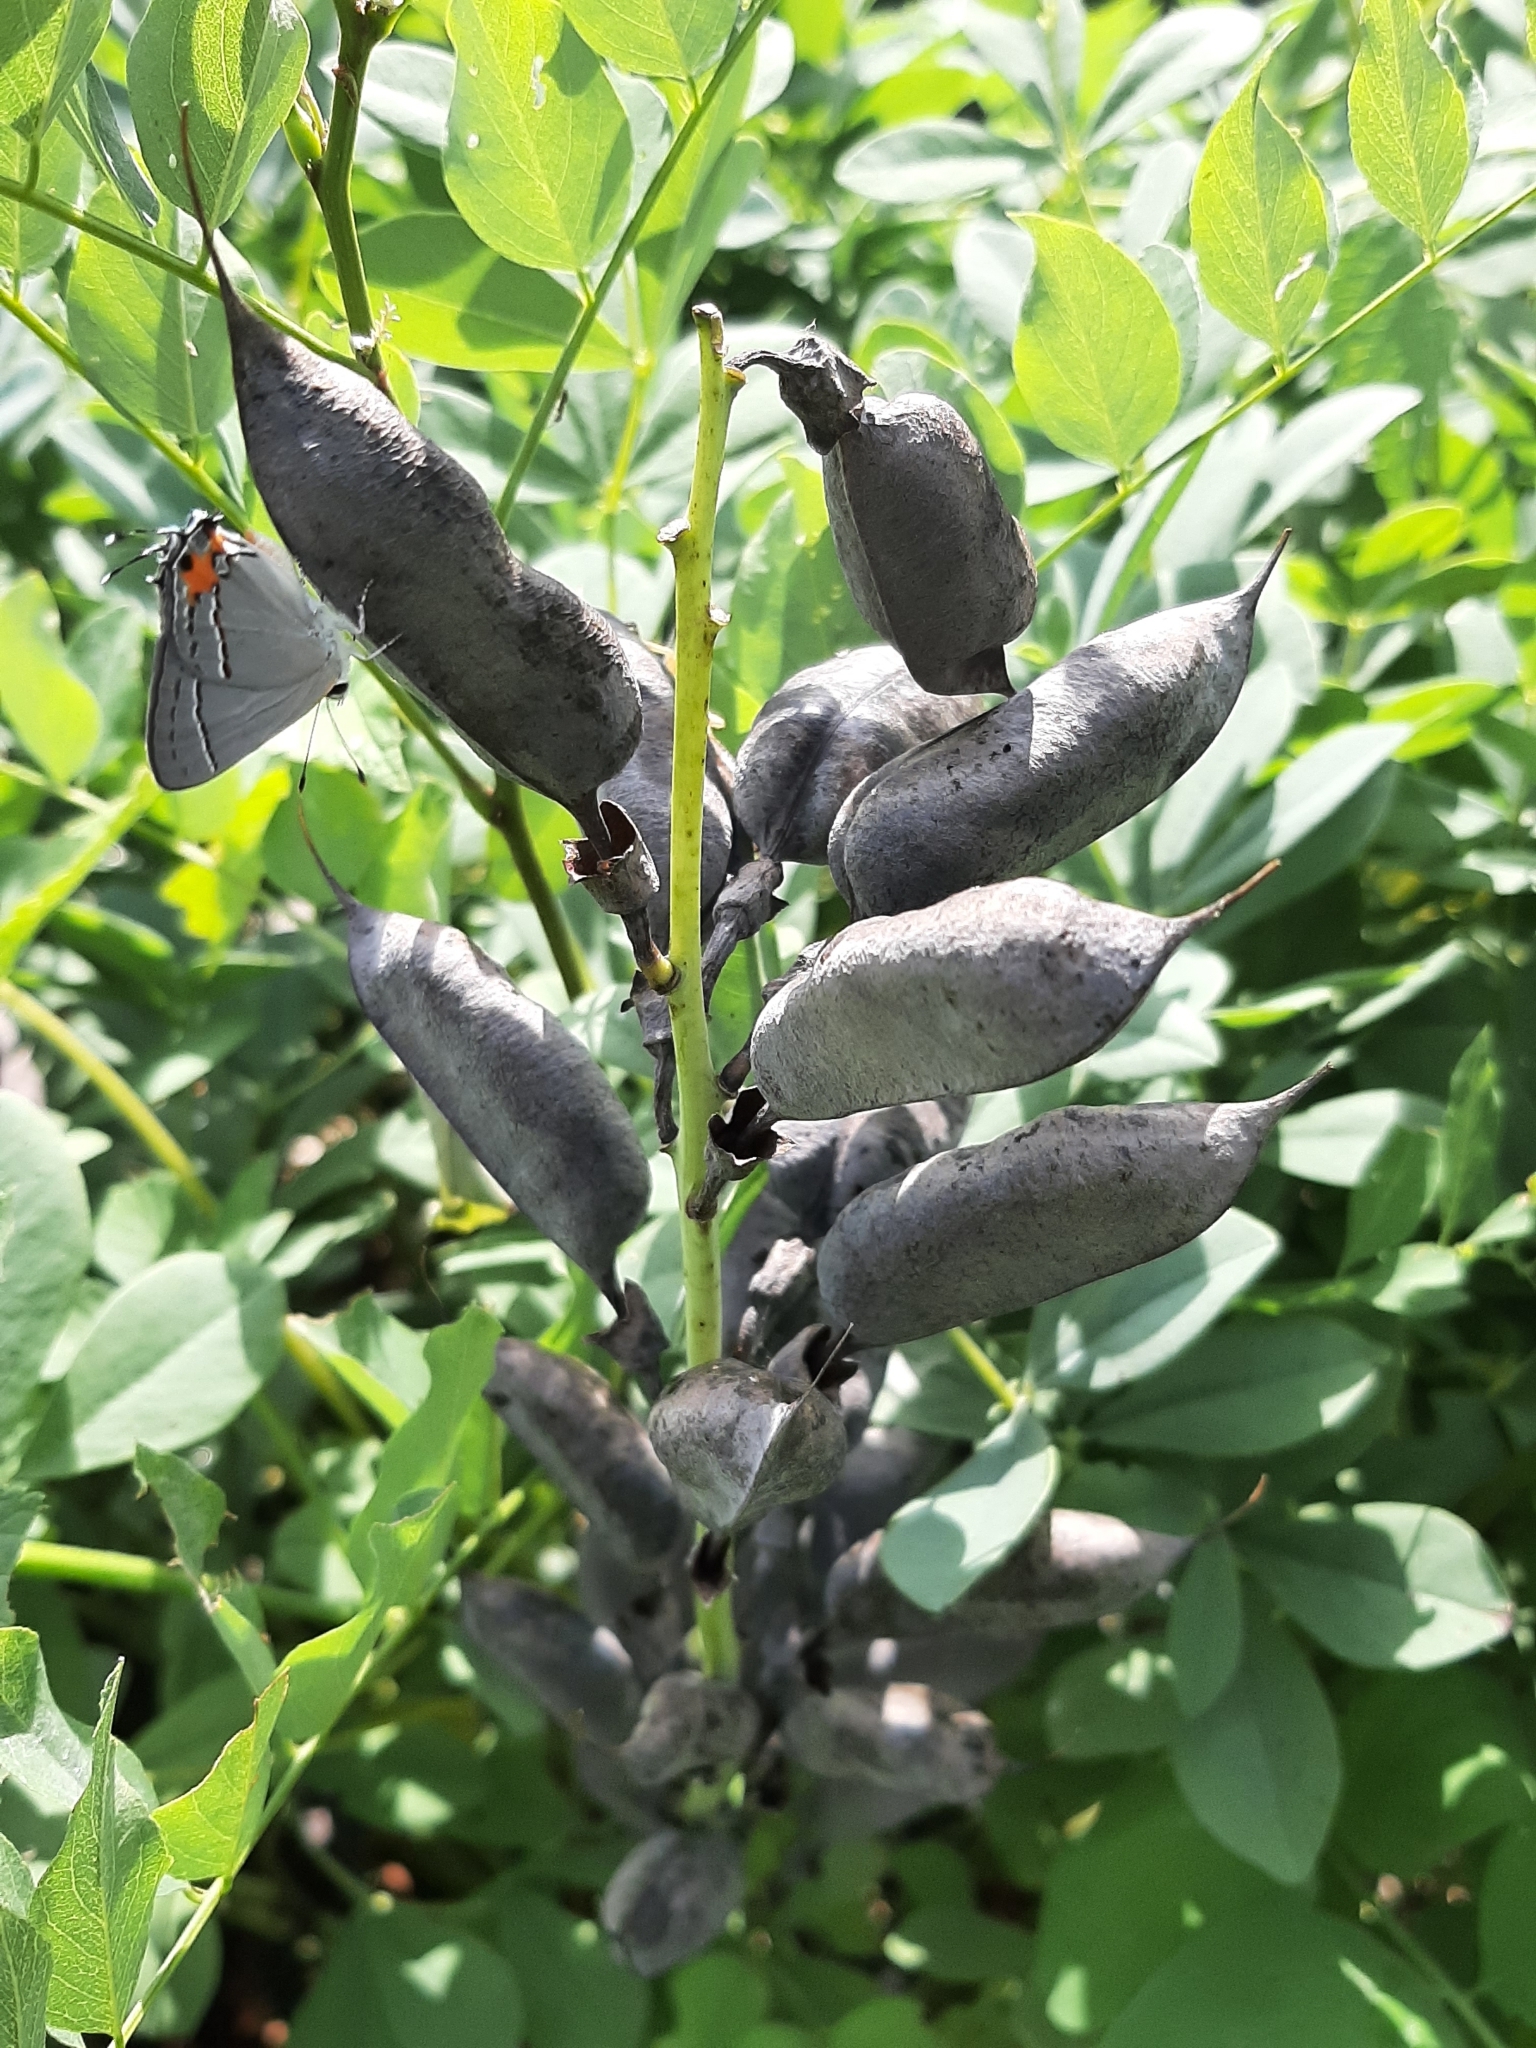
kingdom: Plantae
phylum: Tracheophyta
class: Magnoliopsida
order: Fabales
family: Fabaceae
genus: Baptisia
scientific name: Baptisia australis
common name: Blue false indigo
